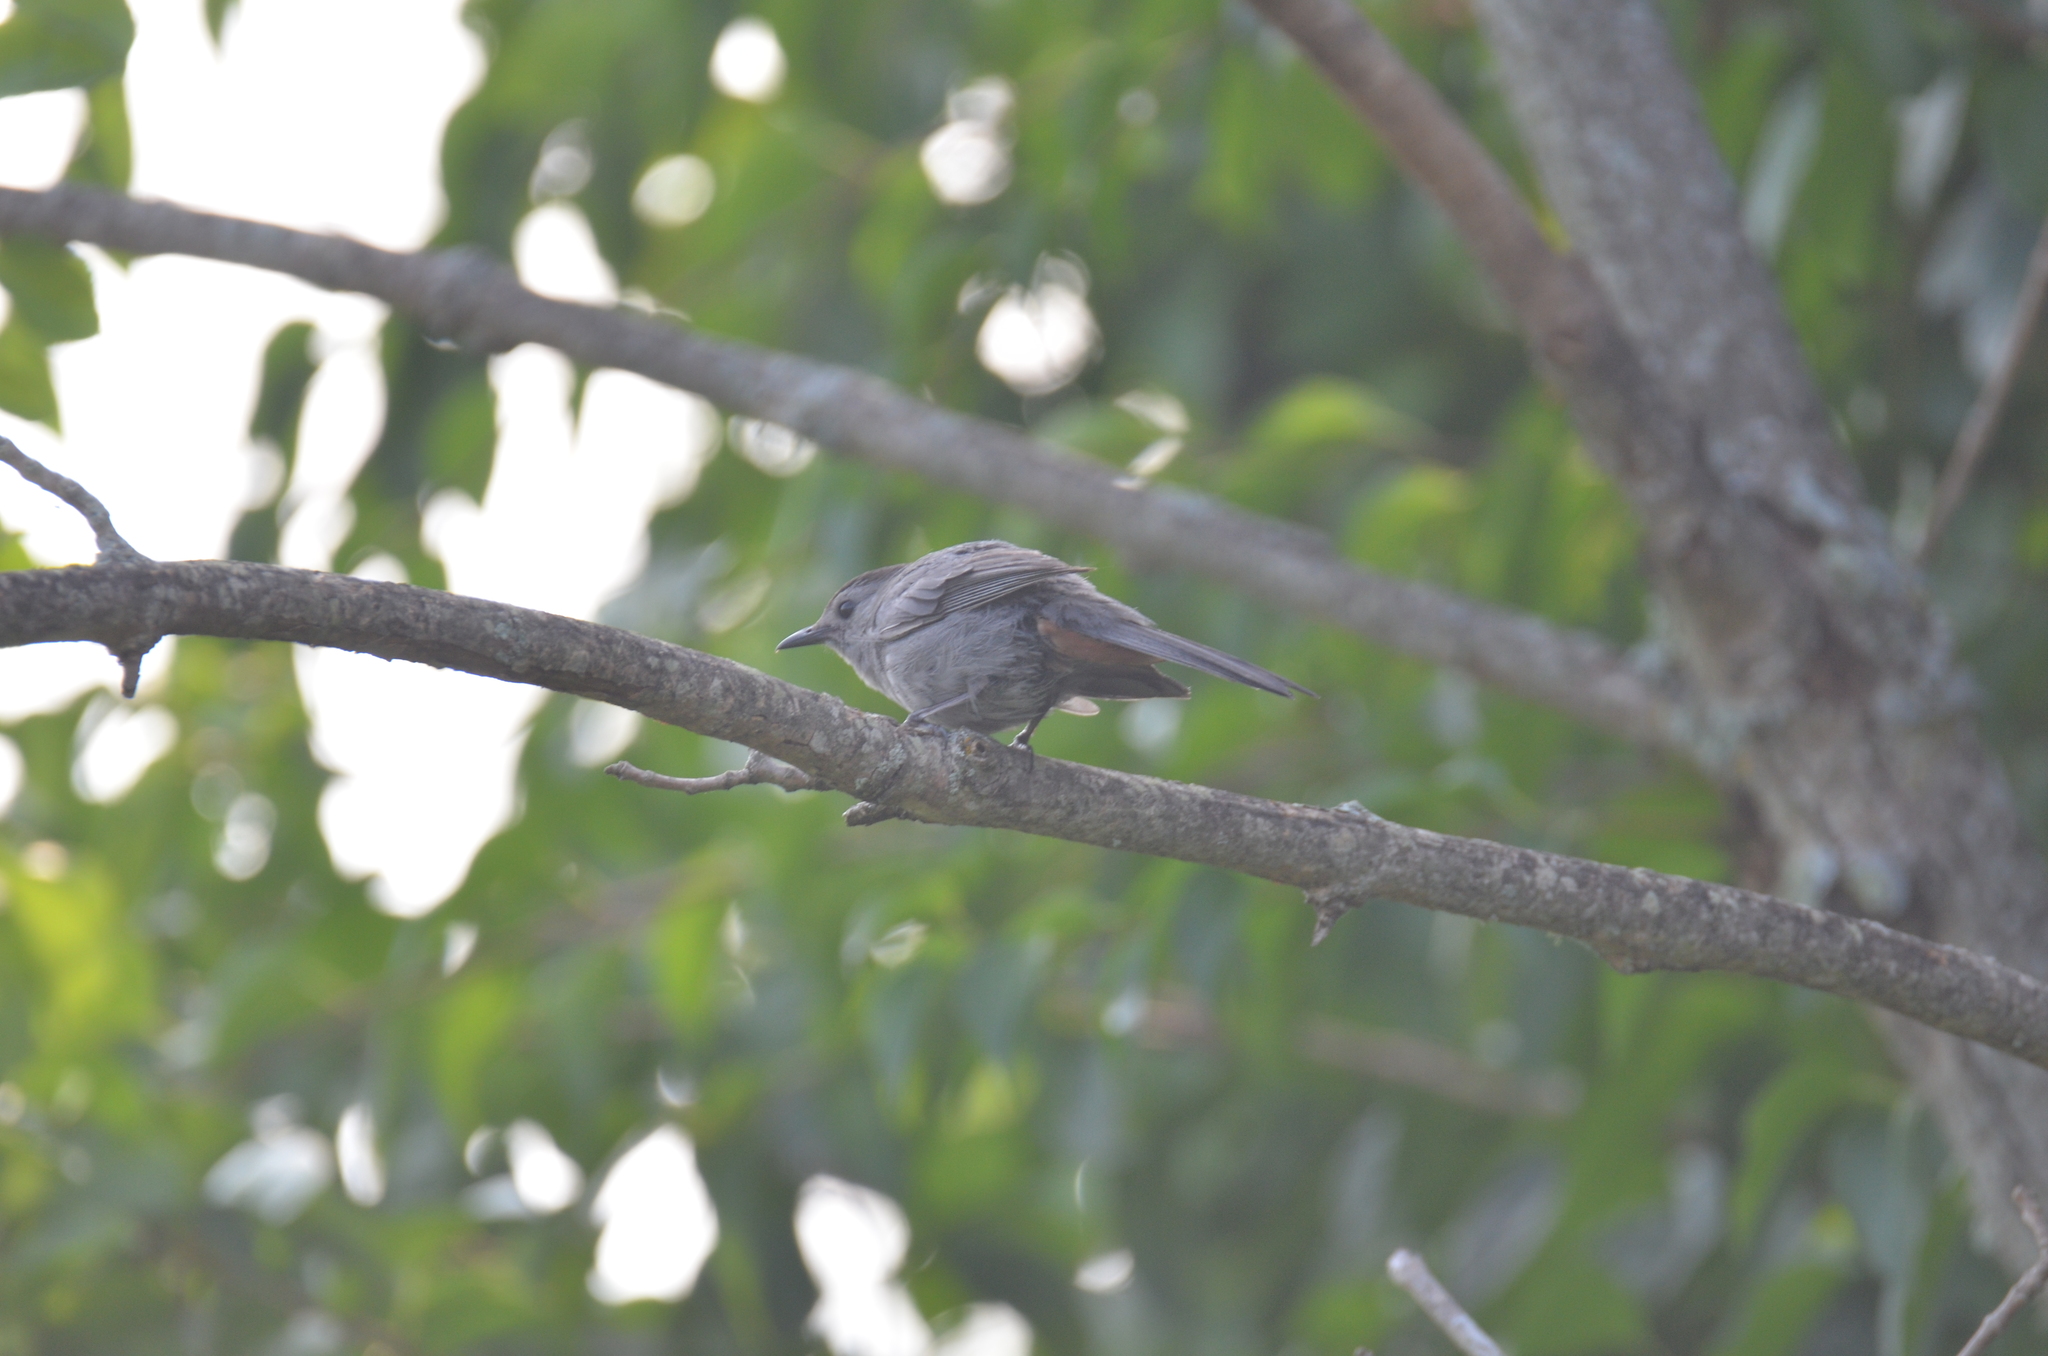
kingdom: Animalia
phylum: Chordata
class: Aves
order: Passeriformes
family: Mimidae
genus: Dumetella
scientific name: Dumetella carolinensis
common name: Gray catbird
